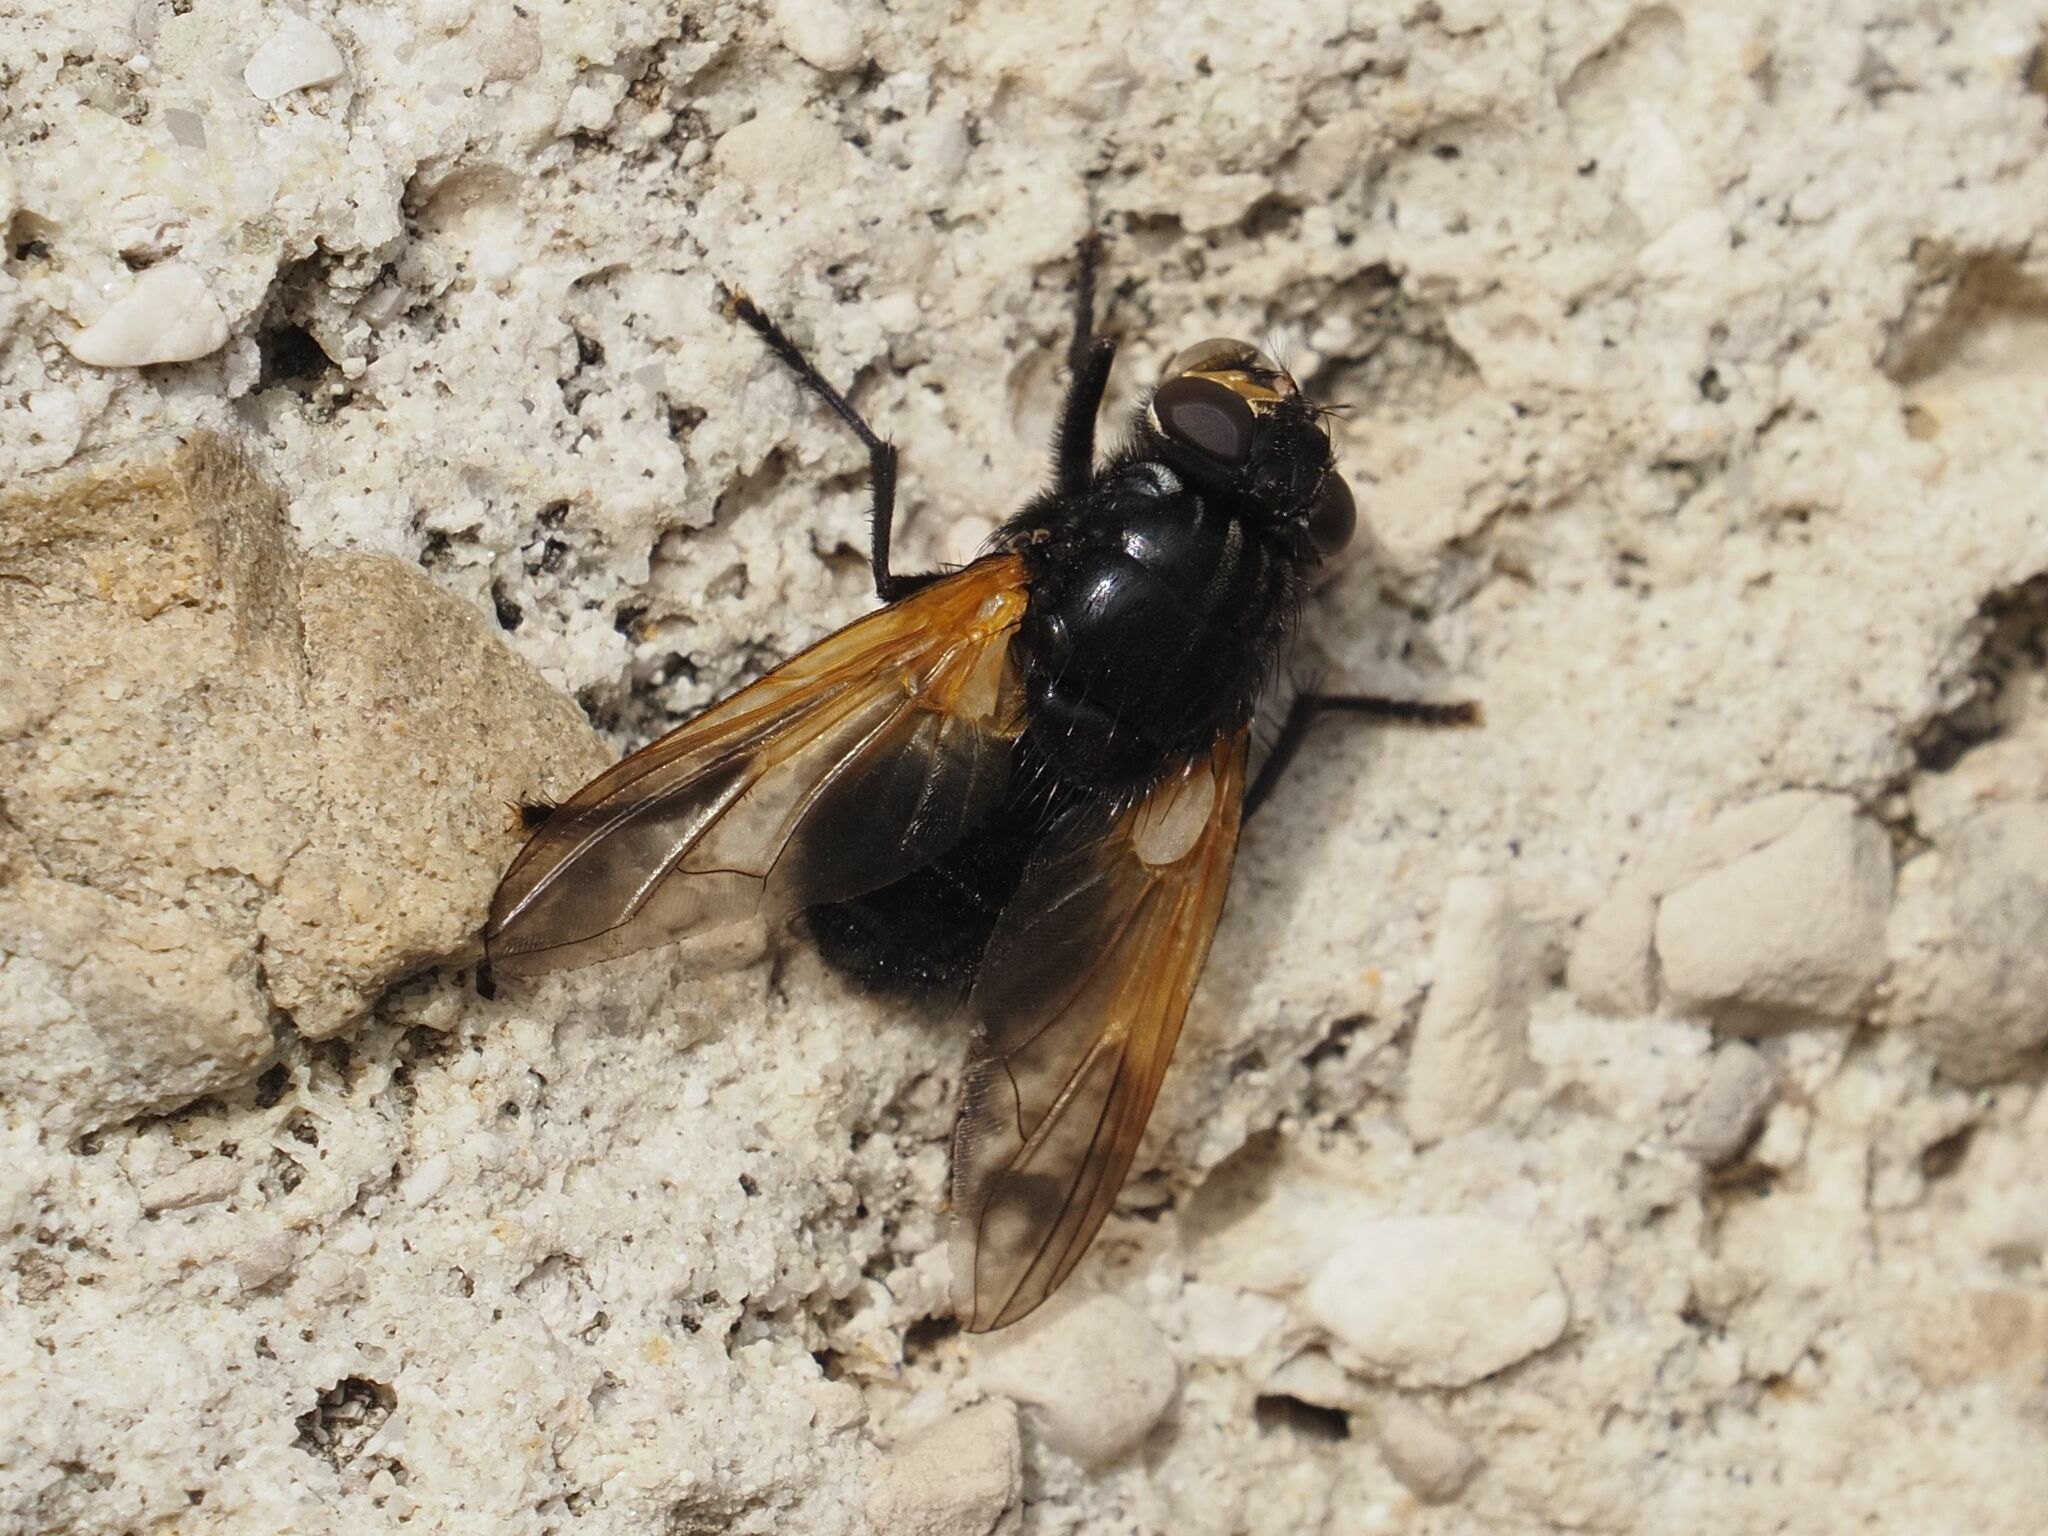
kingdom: Animalia
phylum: Arthropoda
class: Insecta
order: Diptera
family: Muscidae
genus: Mesembrina
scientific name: Mesembrina meridiana
